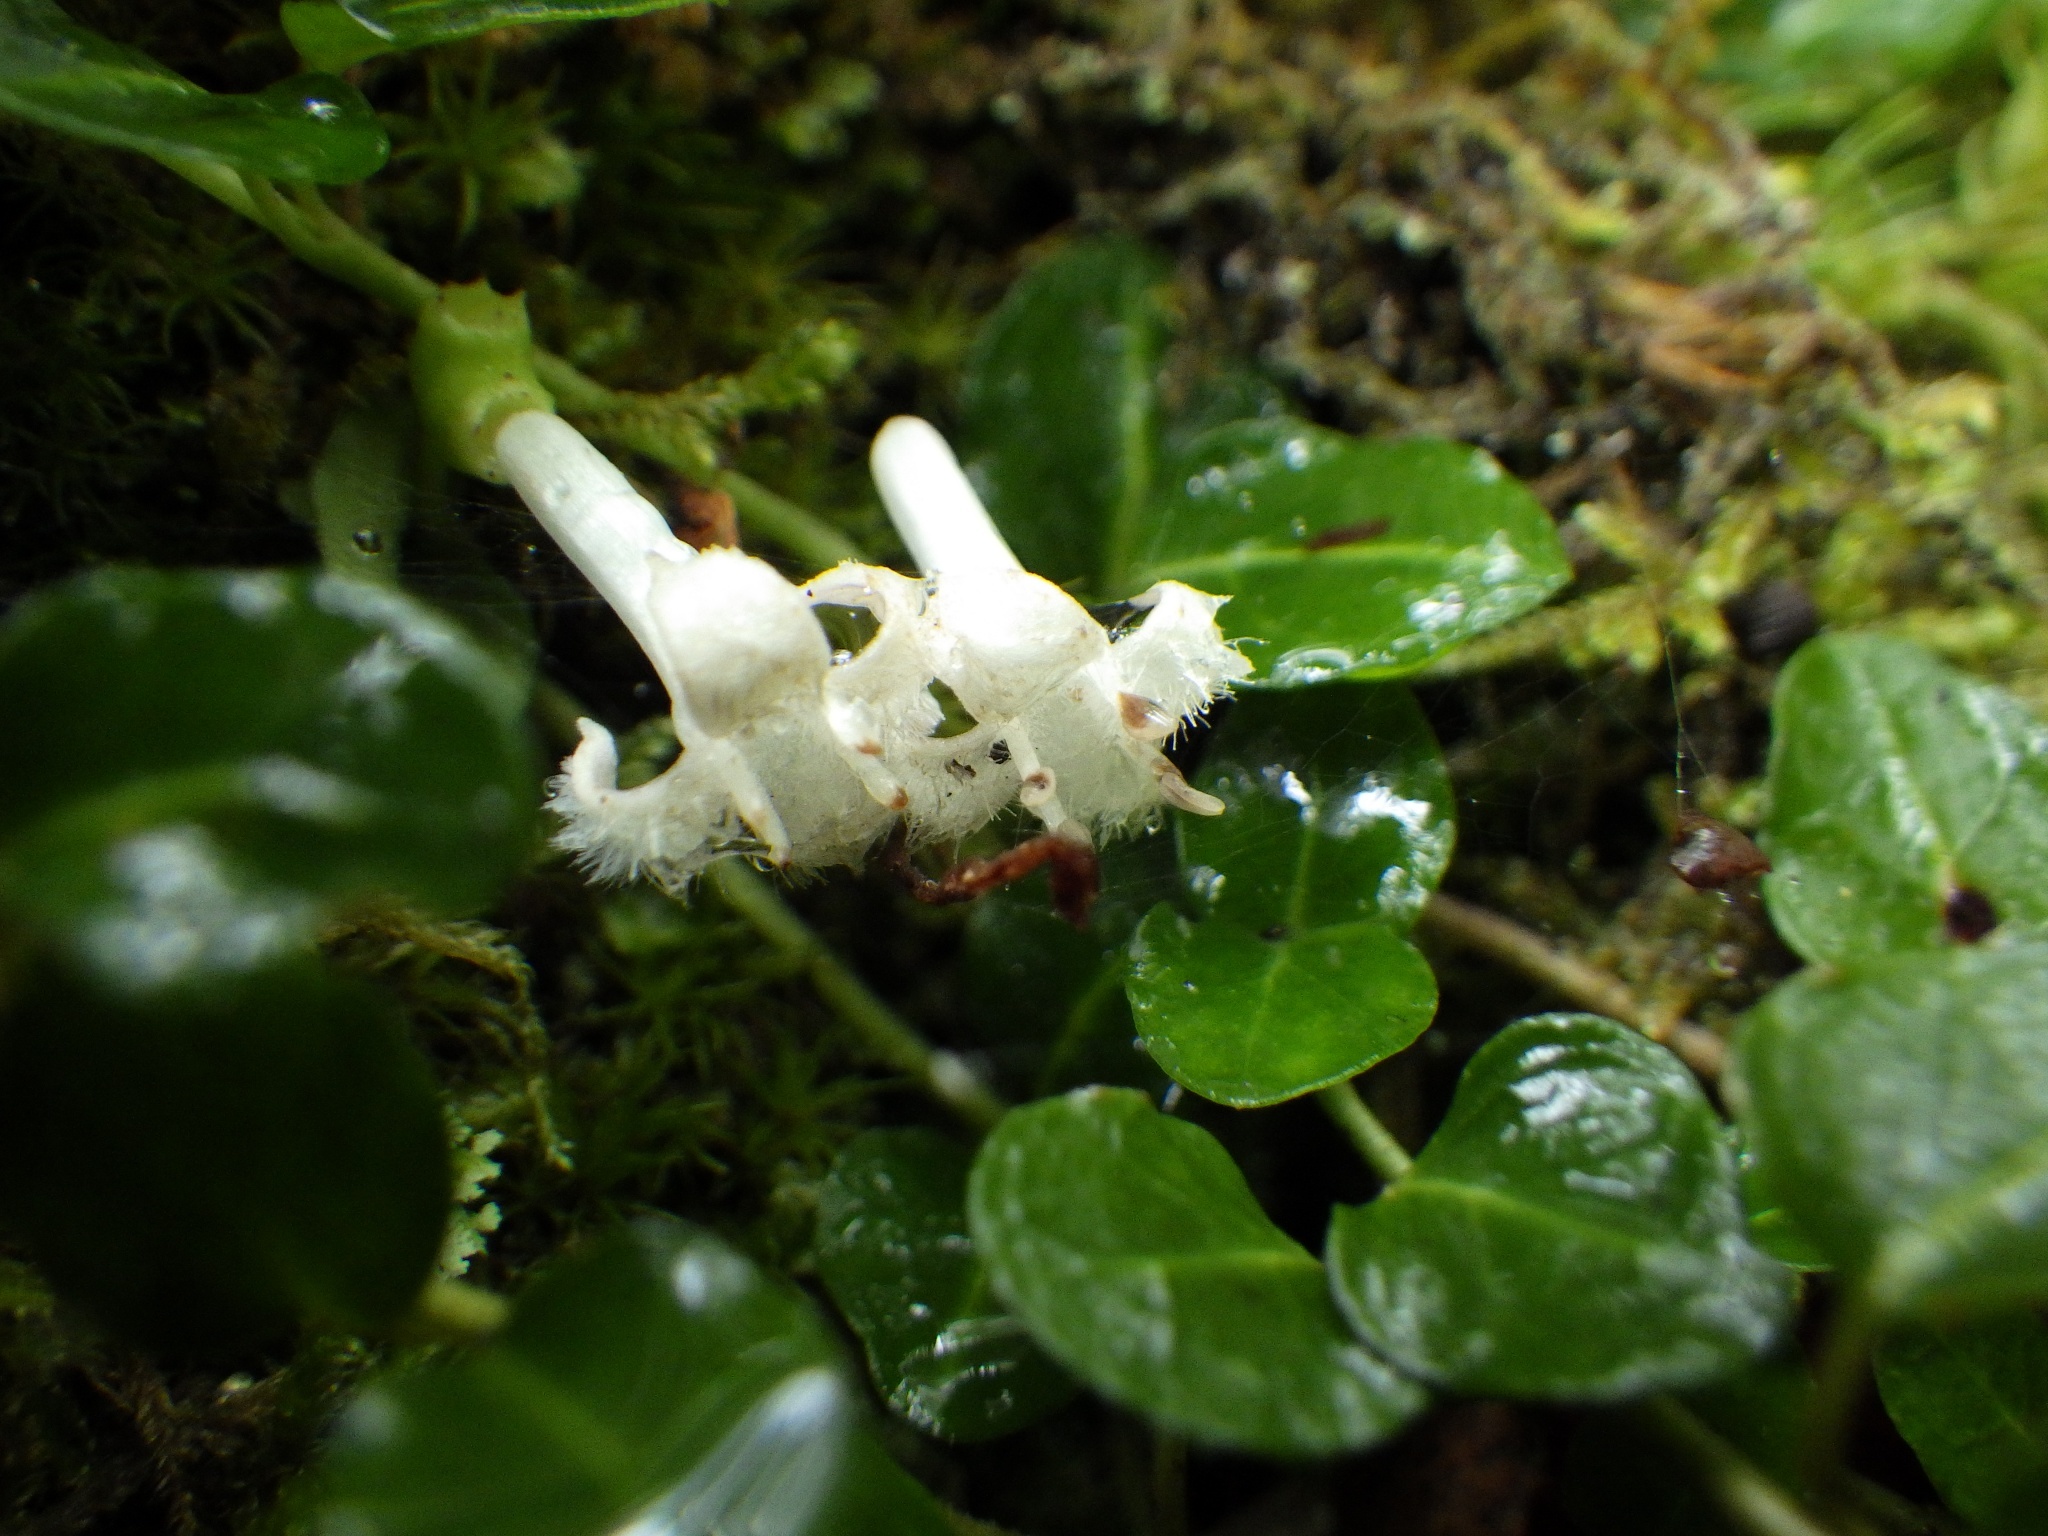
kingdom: Plantae
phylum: Tracheophyta
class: Magnoliopsida
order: Gentianales
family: Rubiaceae
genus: Mitchella
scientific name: Mitchella repens
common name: Partridge-berry
